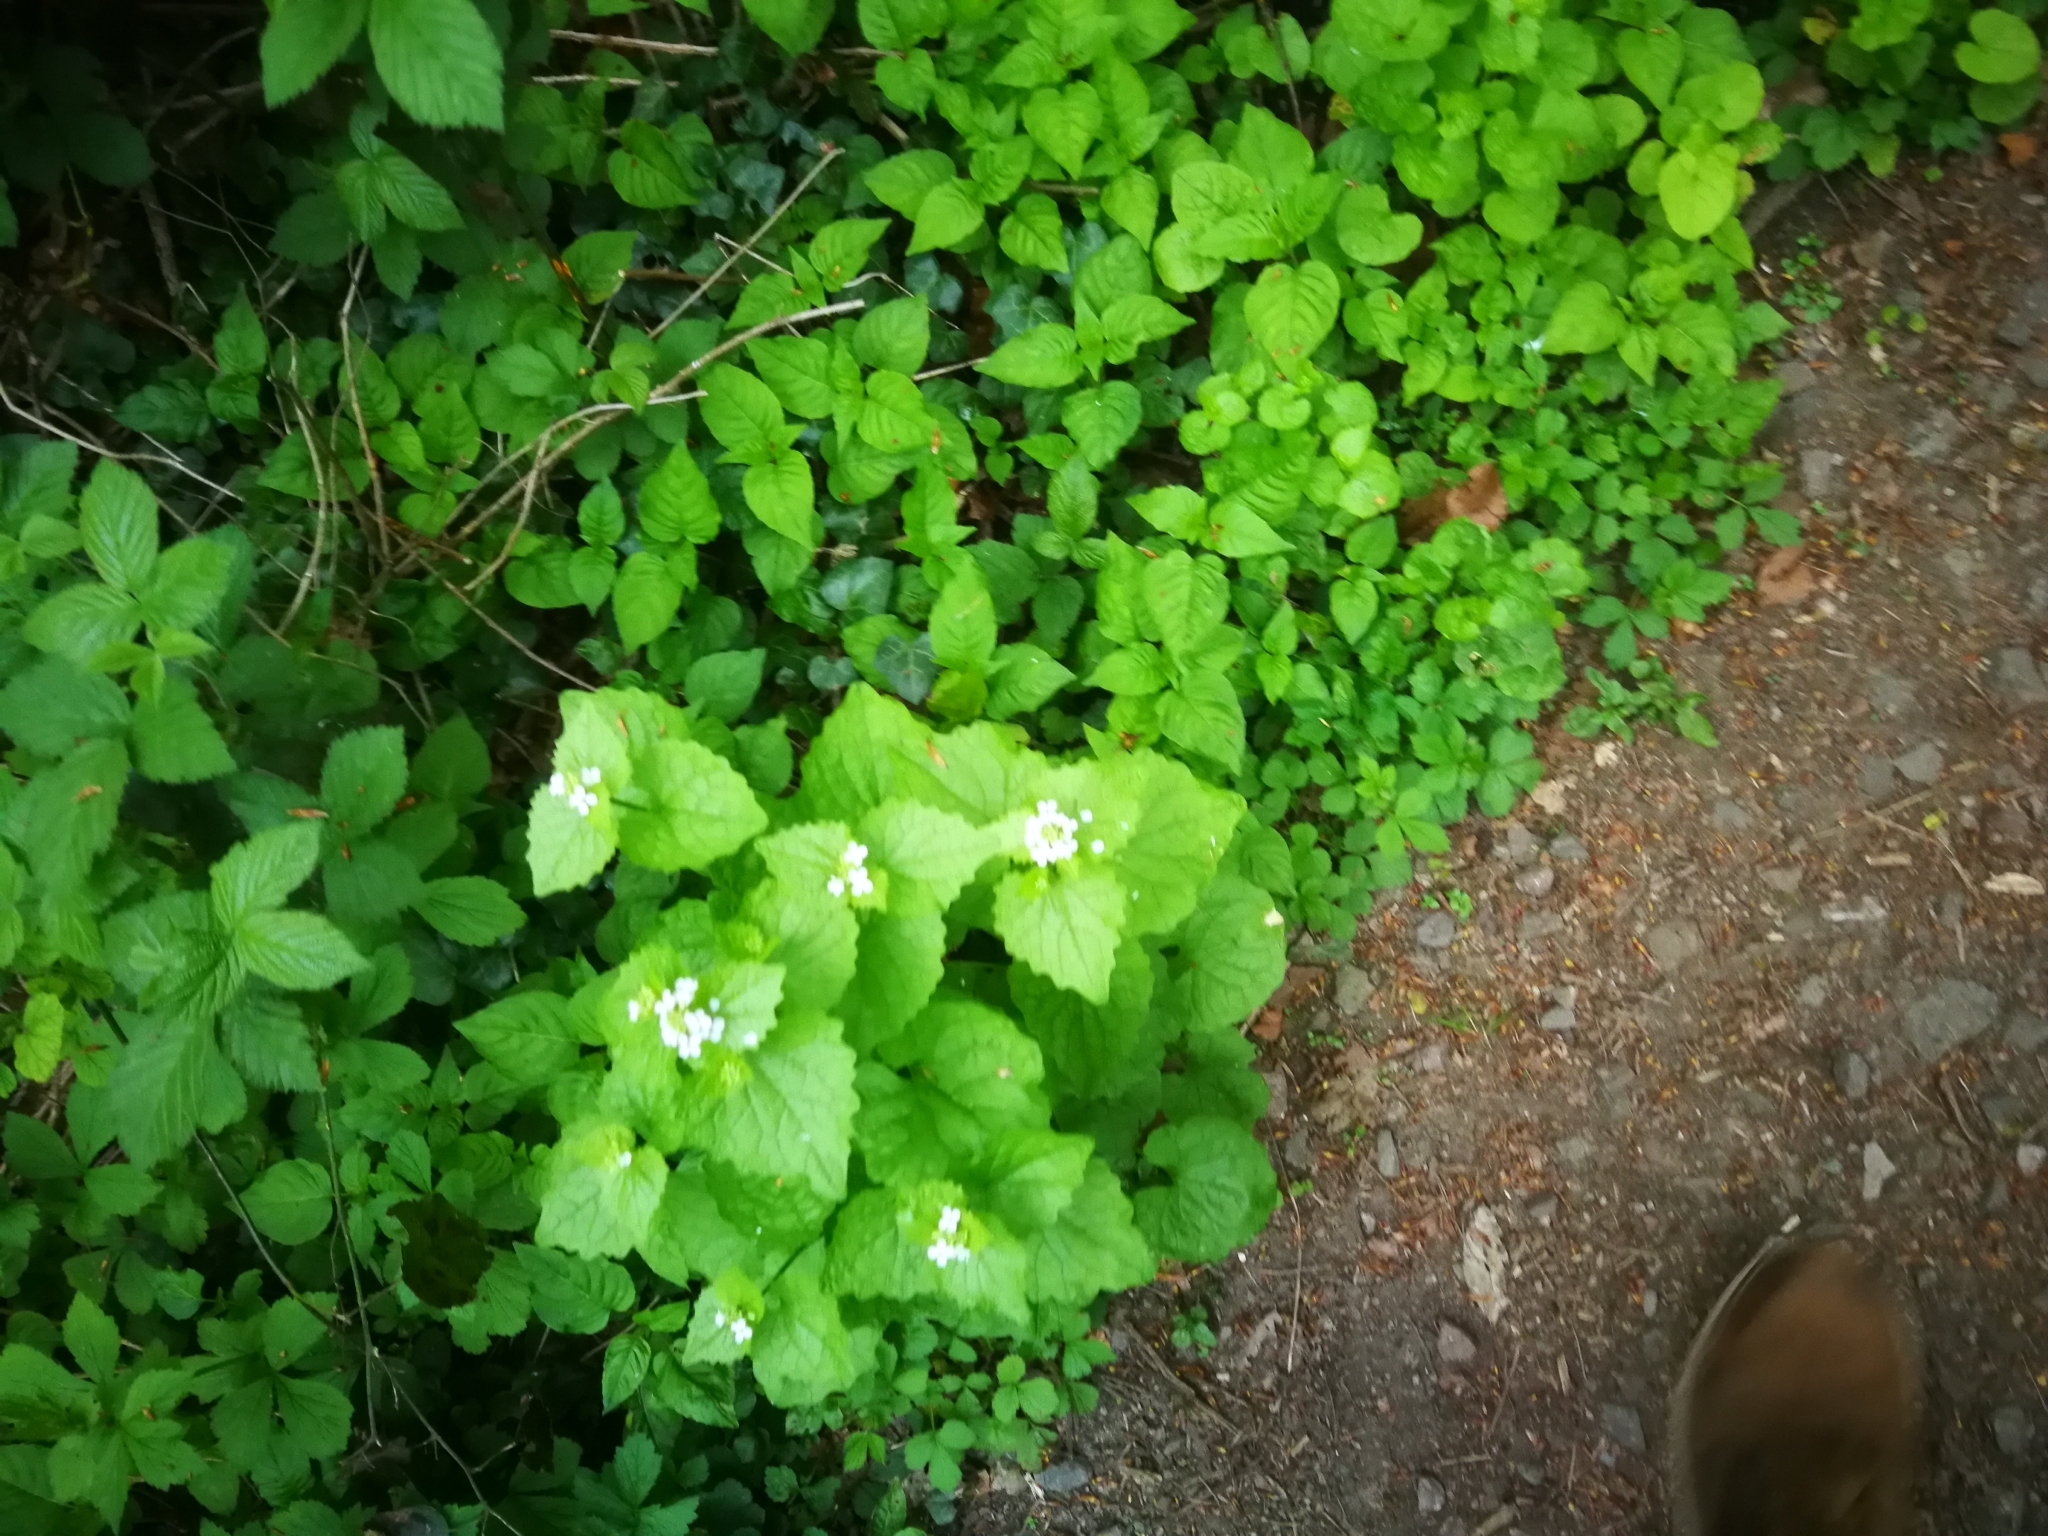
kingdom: Plantae
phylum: Tracheophyta
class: Magnoliopsida
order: Brassicales
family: Brassicaceae
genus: Alliaria
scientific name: Alliaria petiolata
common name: Garlic mustard
